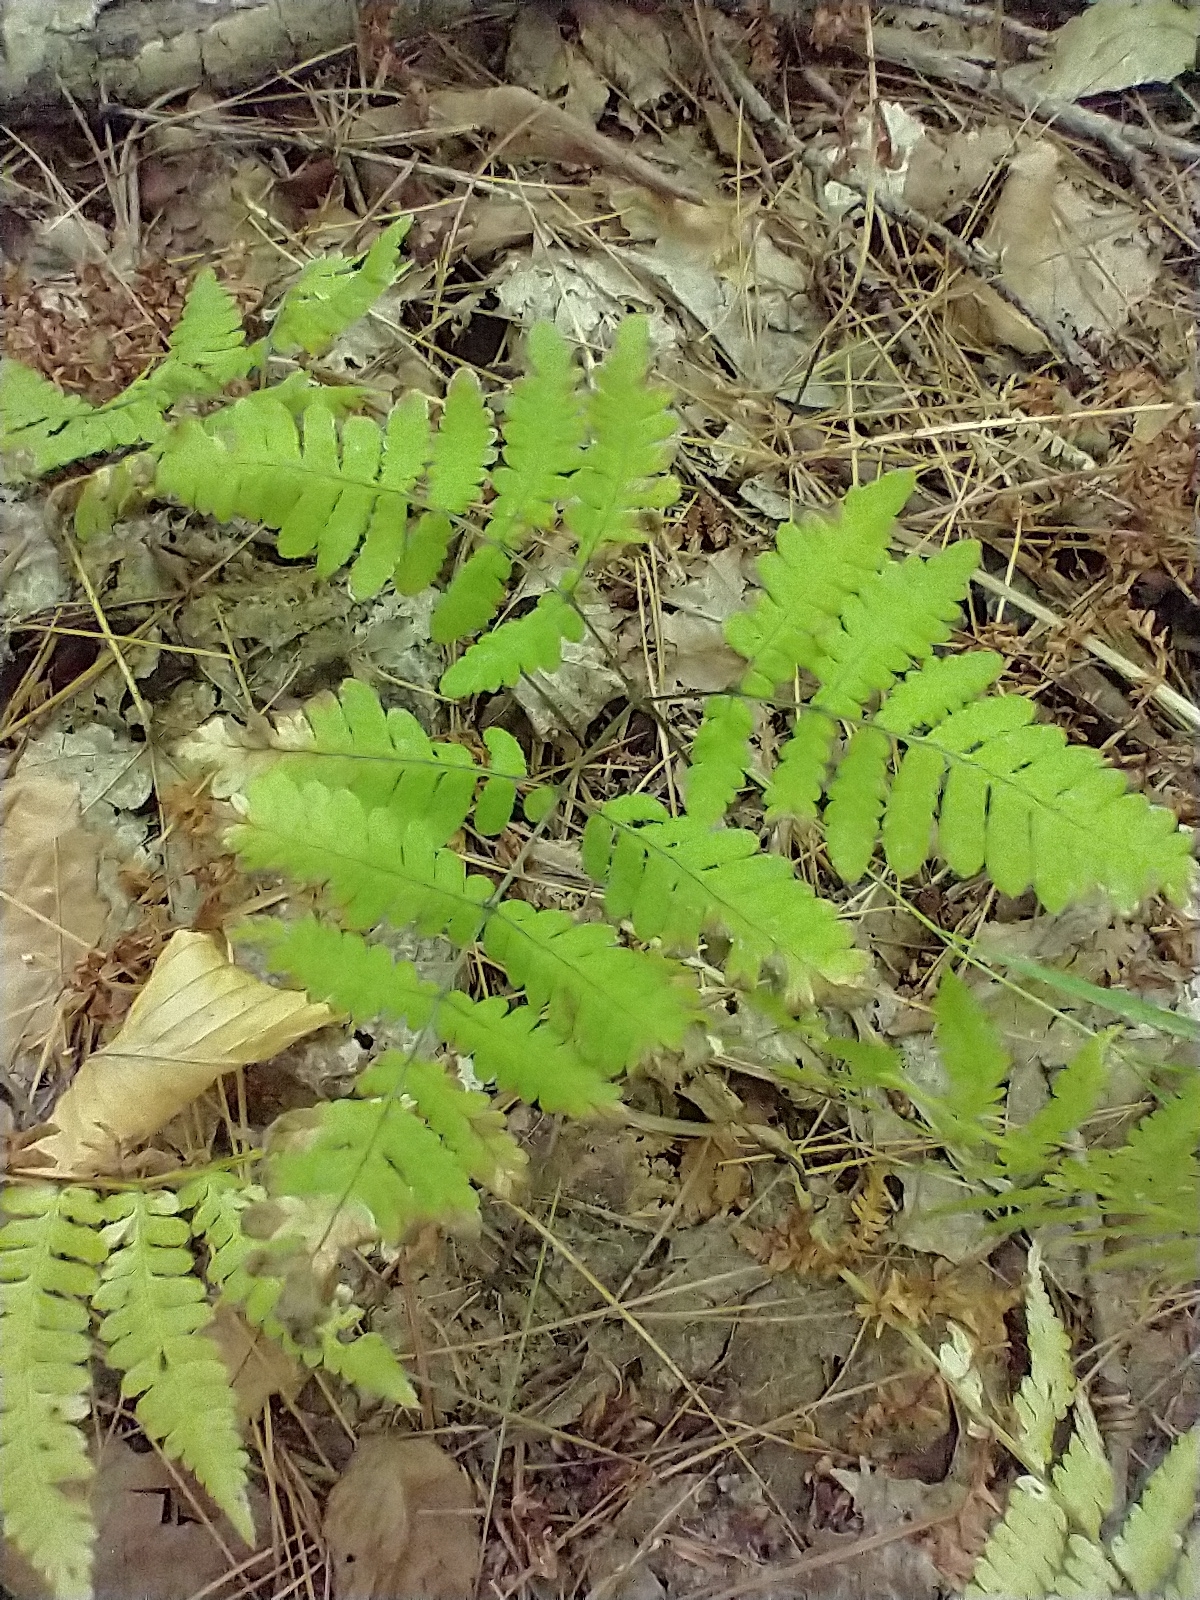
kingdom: Plantae
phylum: Tracheophyta
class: Polypodiopsida
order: Polypodiales
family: Cystopteridaceae
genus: Gymnocarpium
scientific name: Gymnocarpium dryopteris
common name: Oak fern
